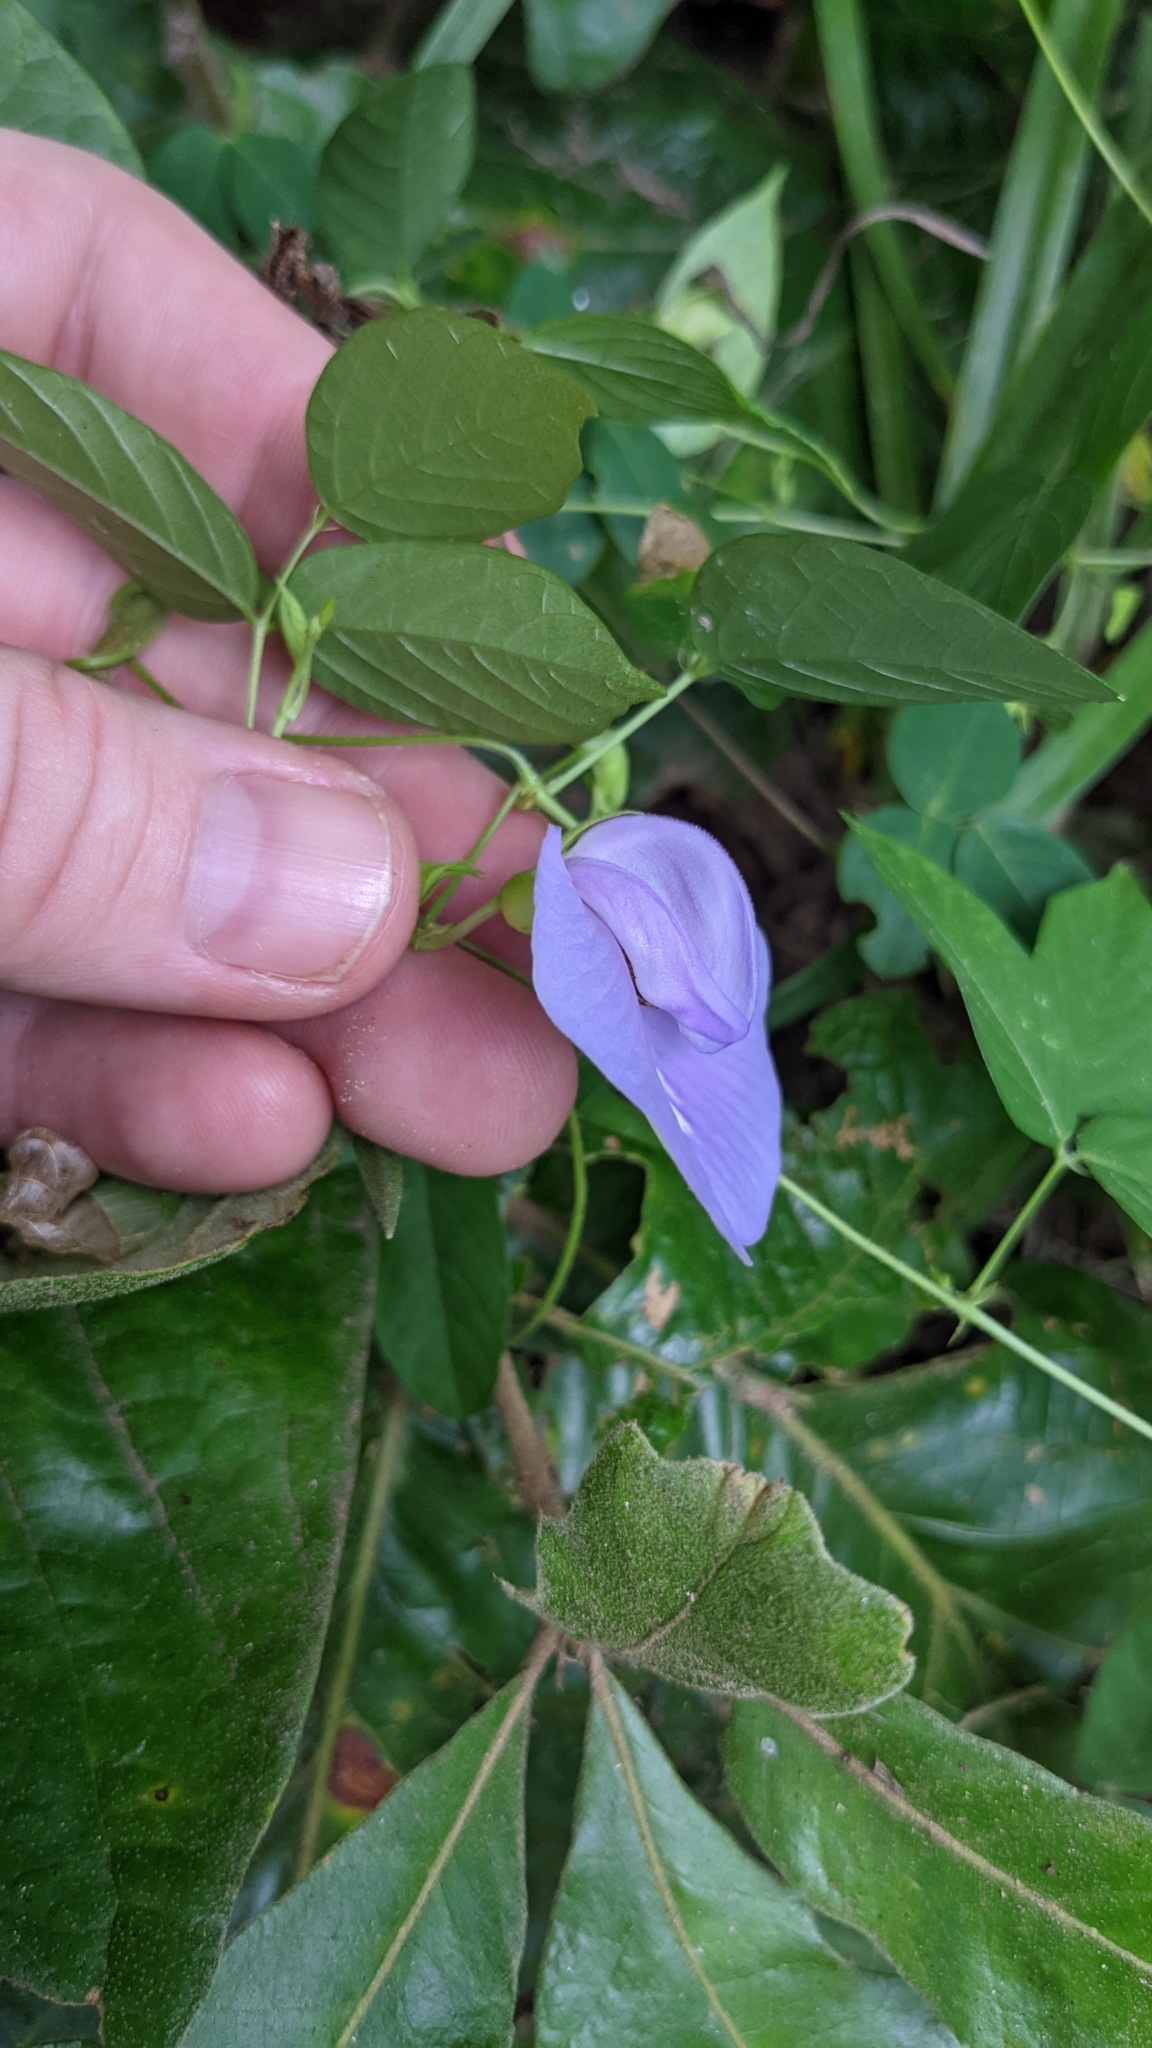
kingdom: Plantae
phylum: Tracheophyta
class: Magnoliopsida
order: Fabales
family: Fabaceae
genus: Centrosema
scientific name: Centrosema virginianum
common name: Butterfly-pea
